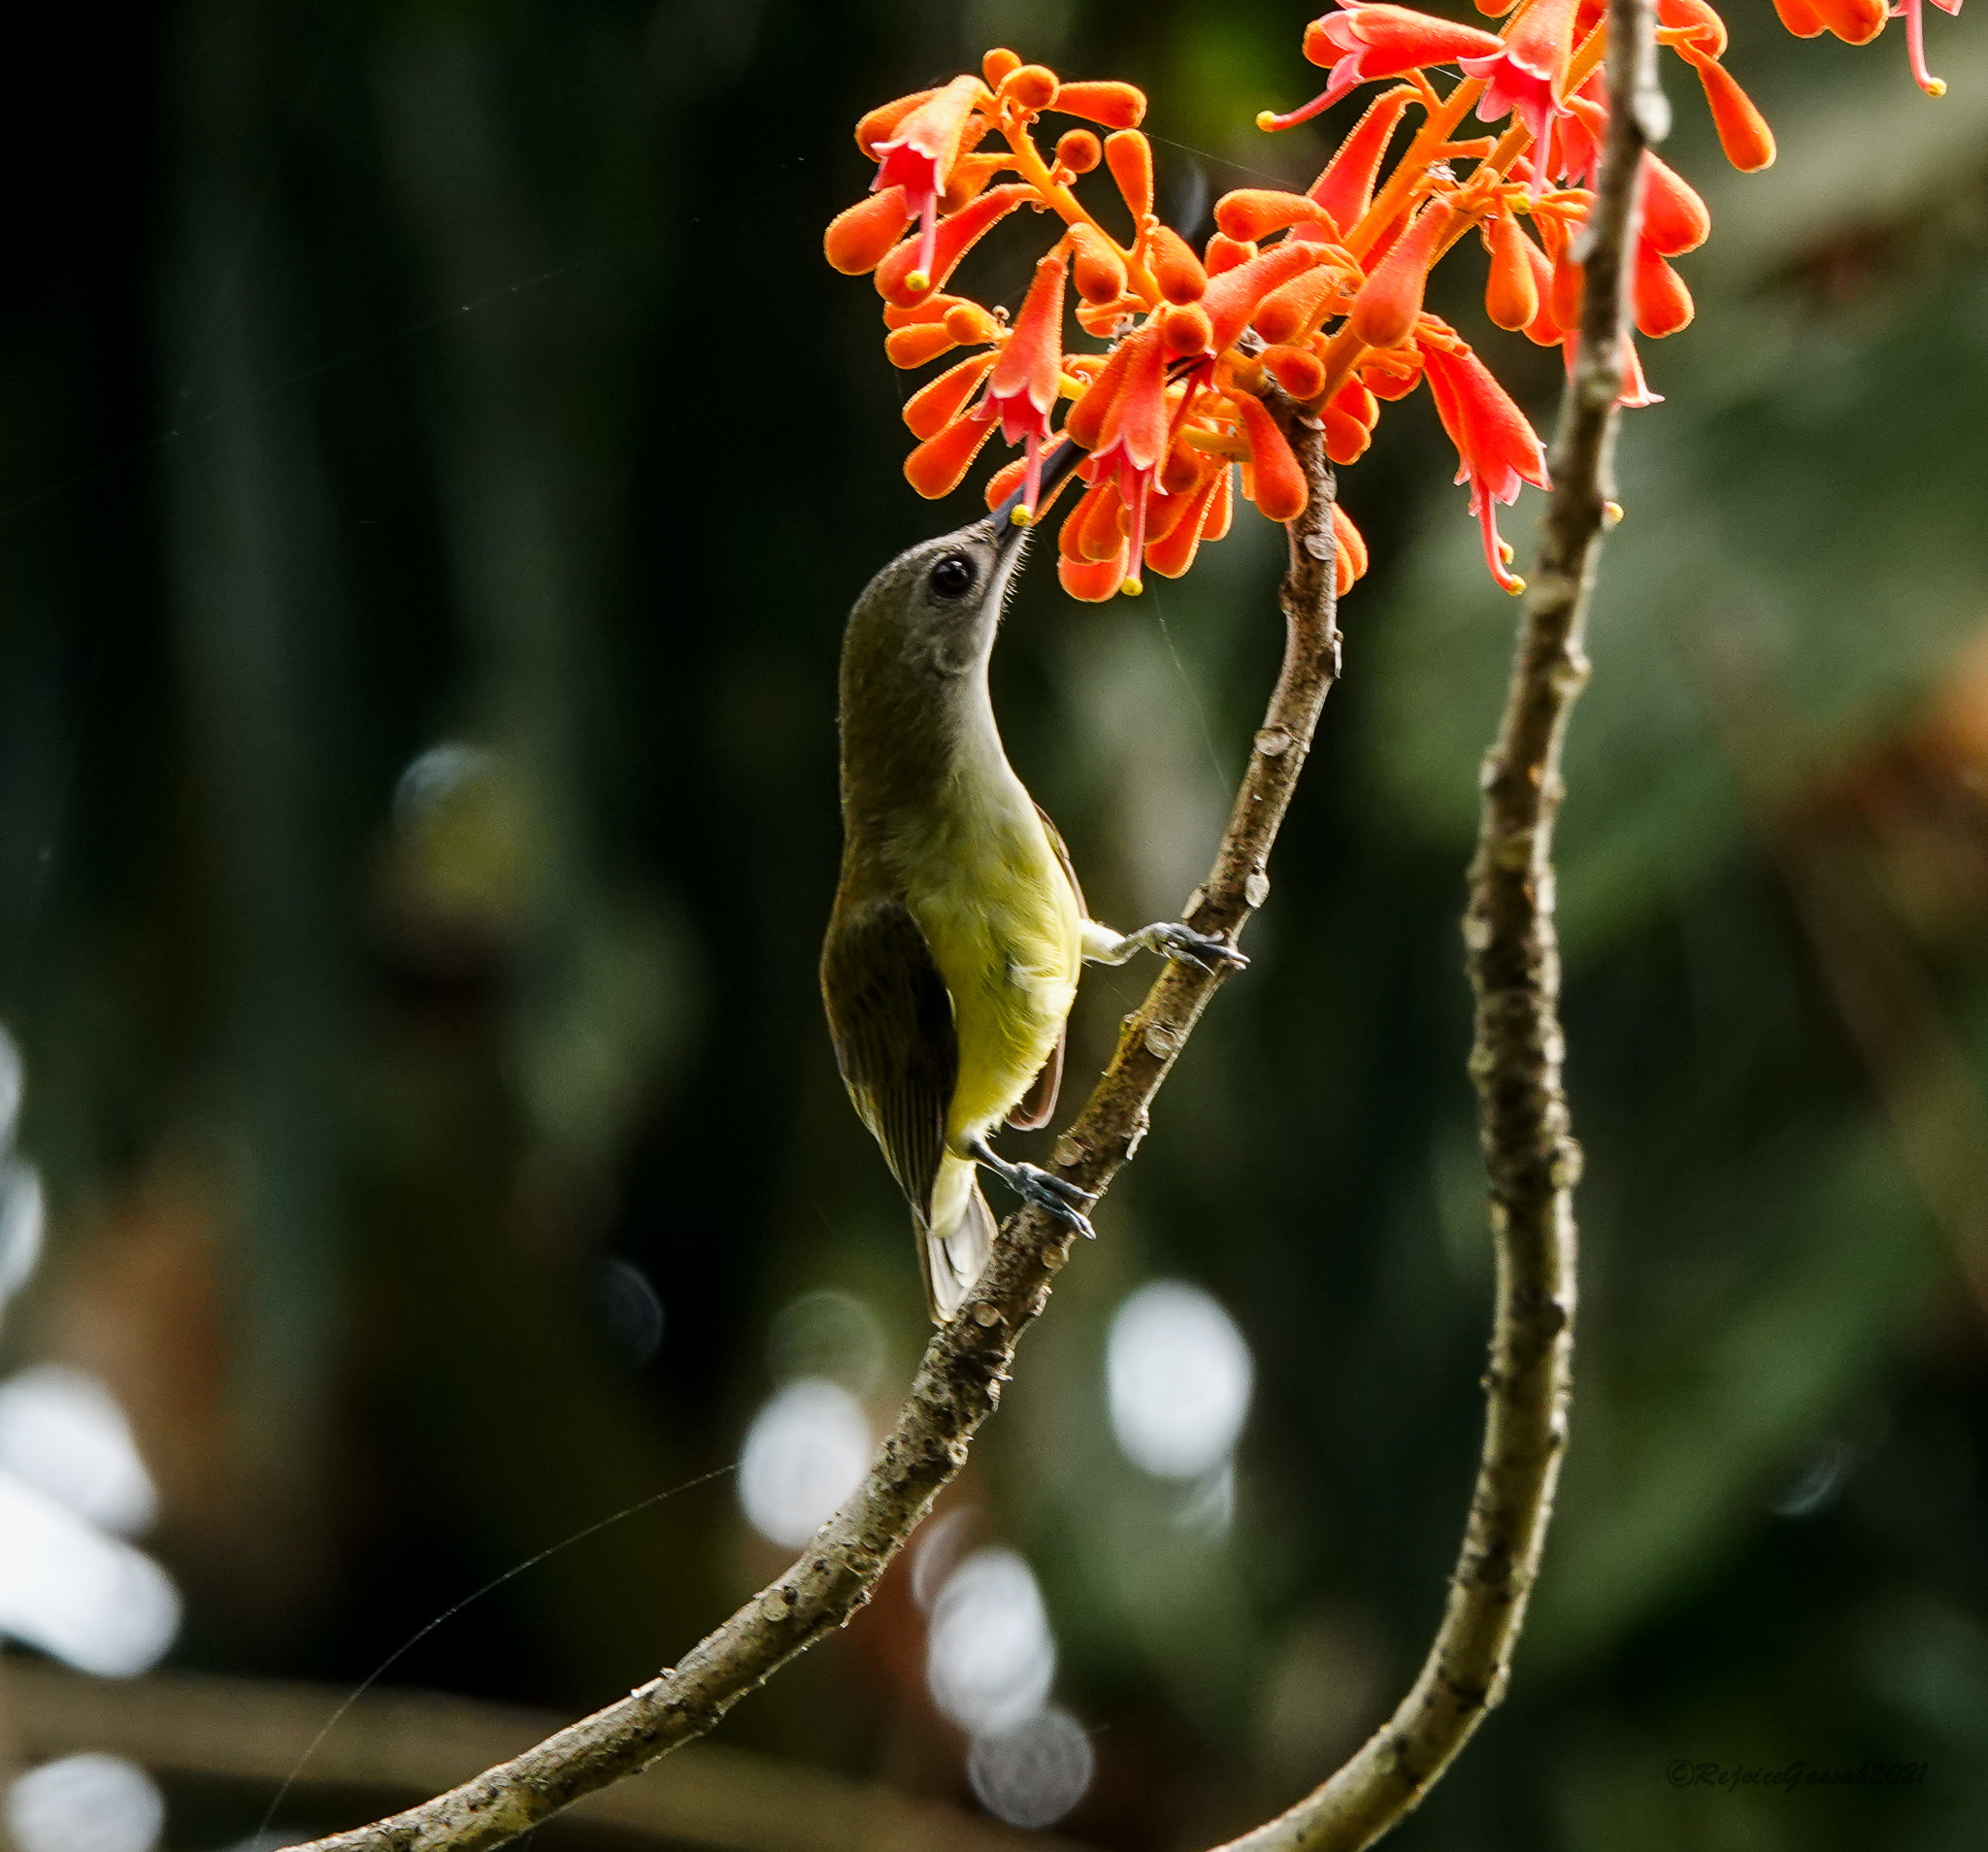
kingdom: Animalia
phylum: Chordata
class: Aves
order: Passeriformes
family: Nectariniidae
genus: Arachnothera
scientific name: Arachnothera longirostra
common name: Little spiderhunter
